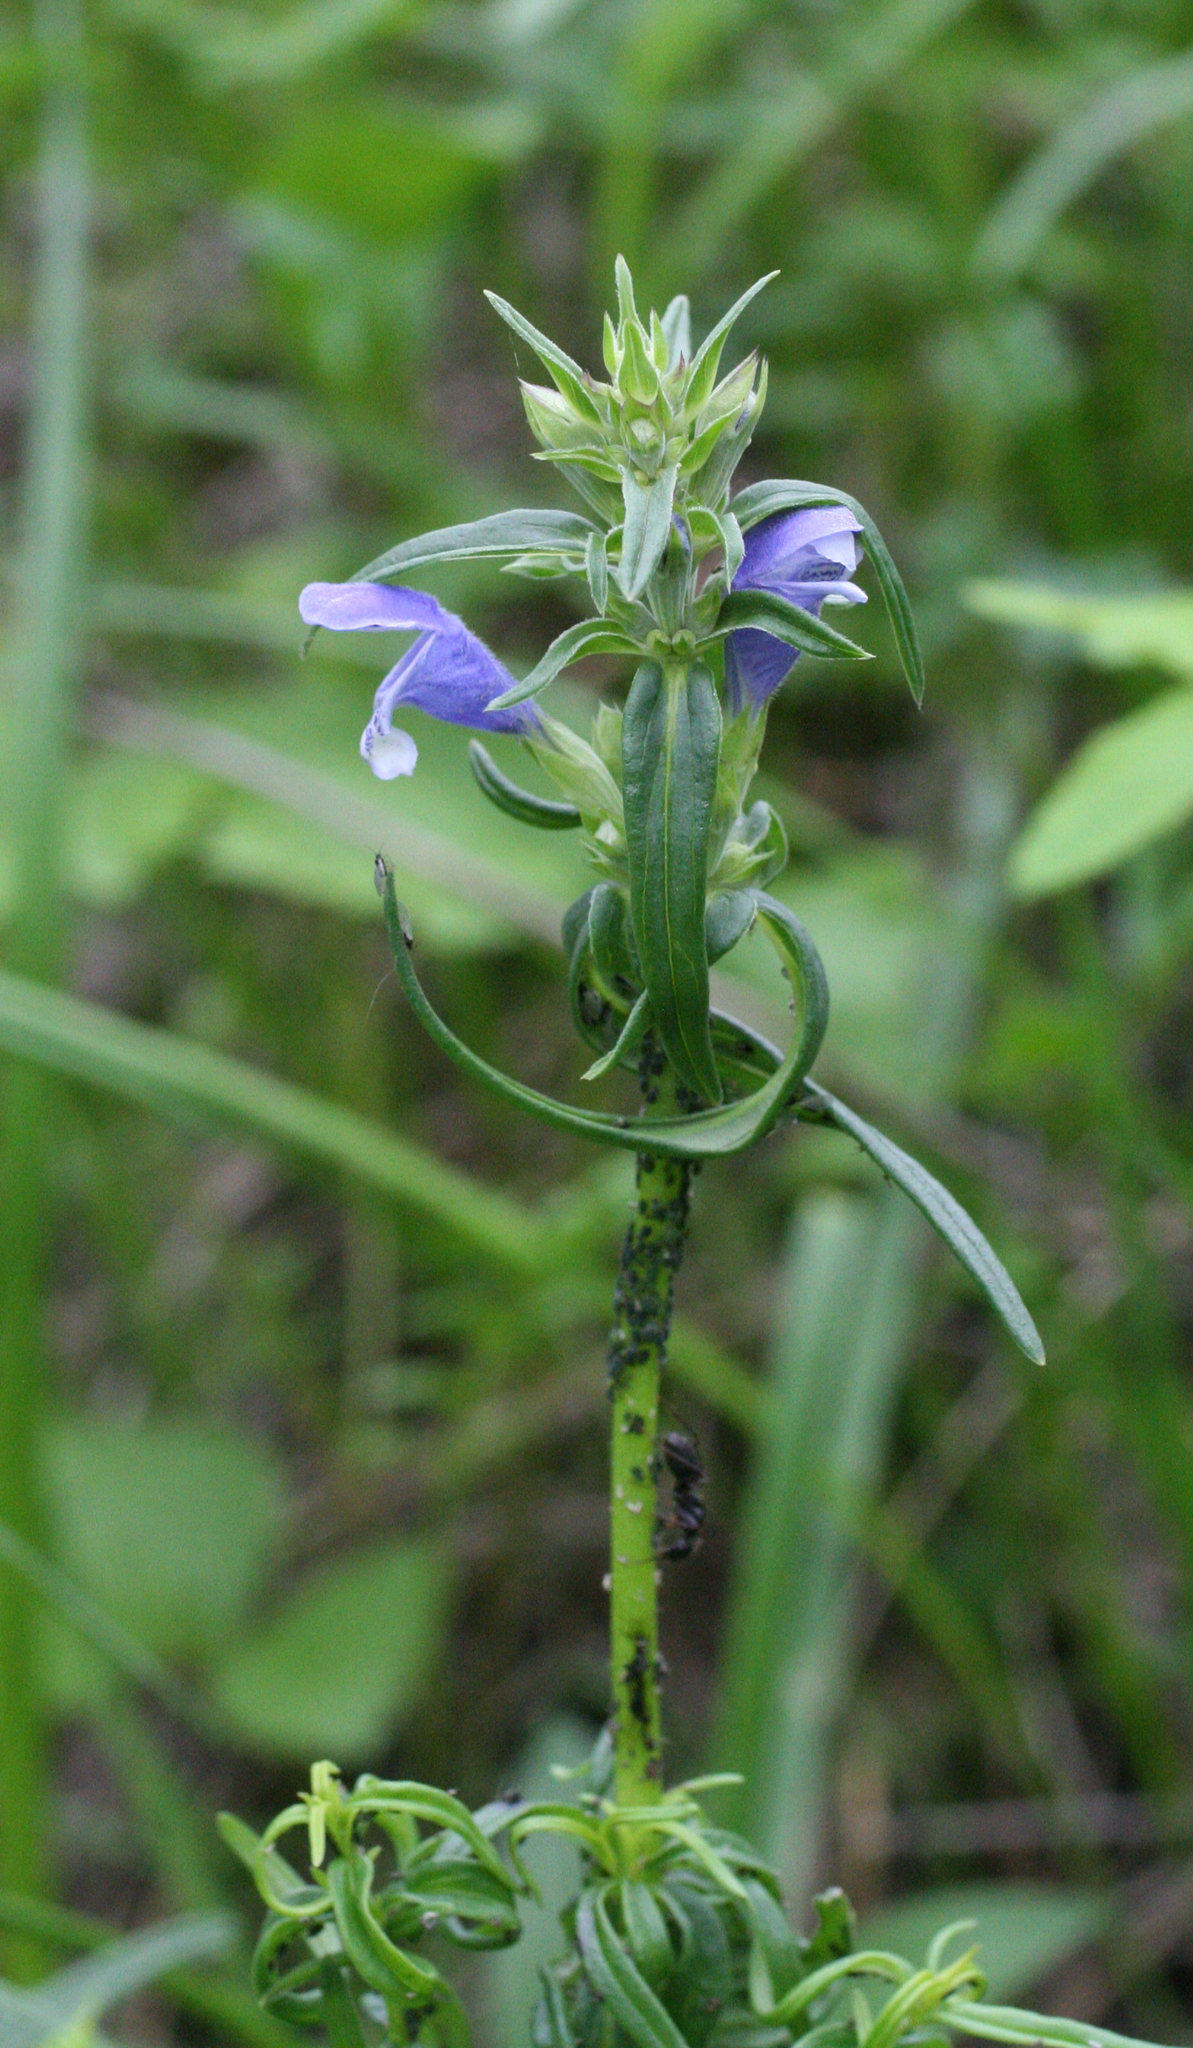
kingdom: Plantae
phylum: Tracheophyta
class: Magnoliopsida
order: Lamiales
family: Lamiaceae
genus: Dracocephalum
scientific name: Dracocephalum ruyschiana
